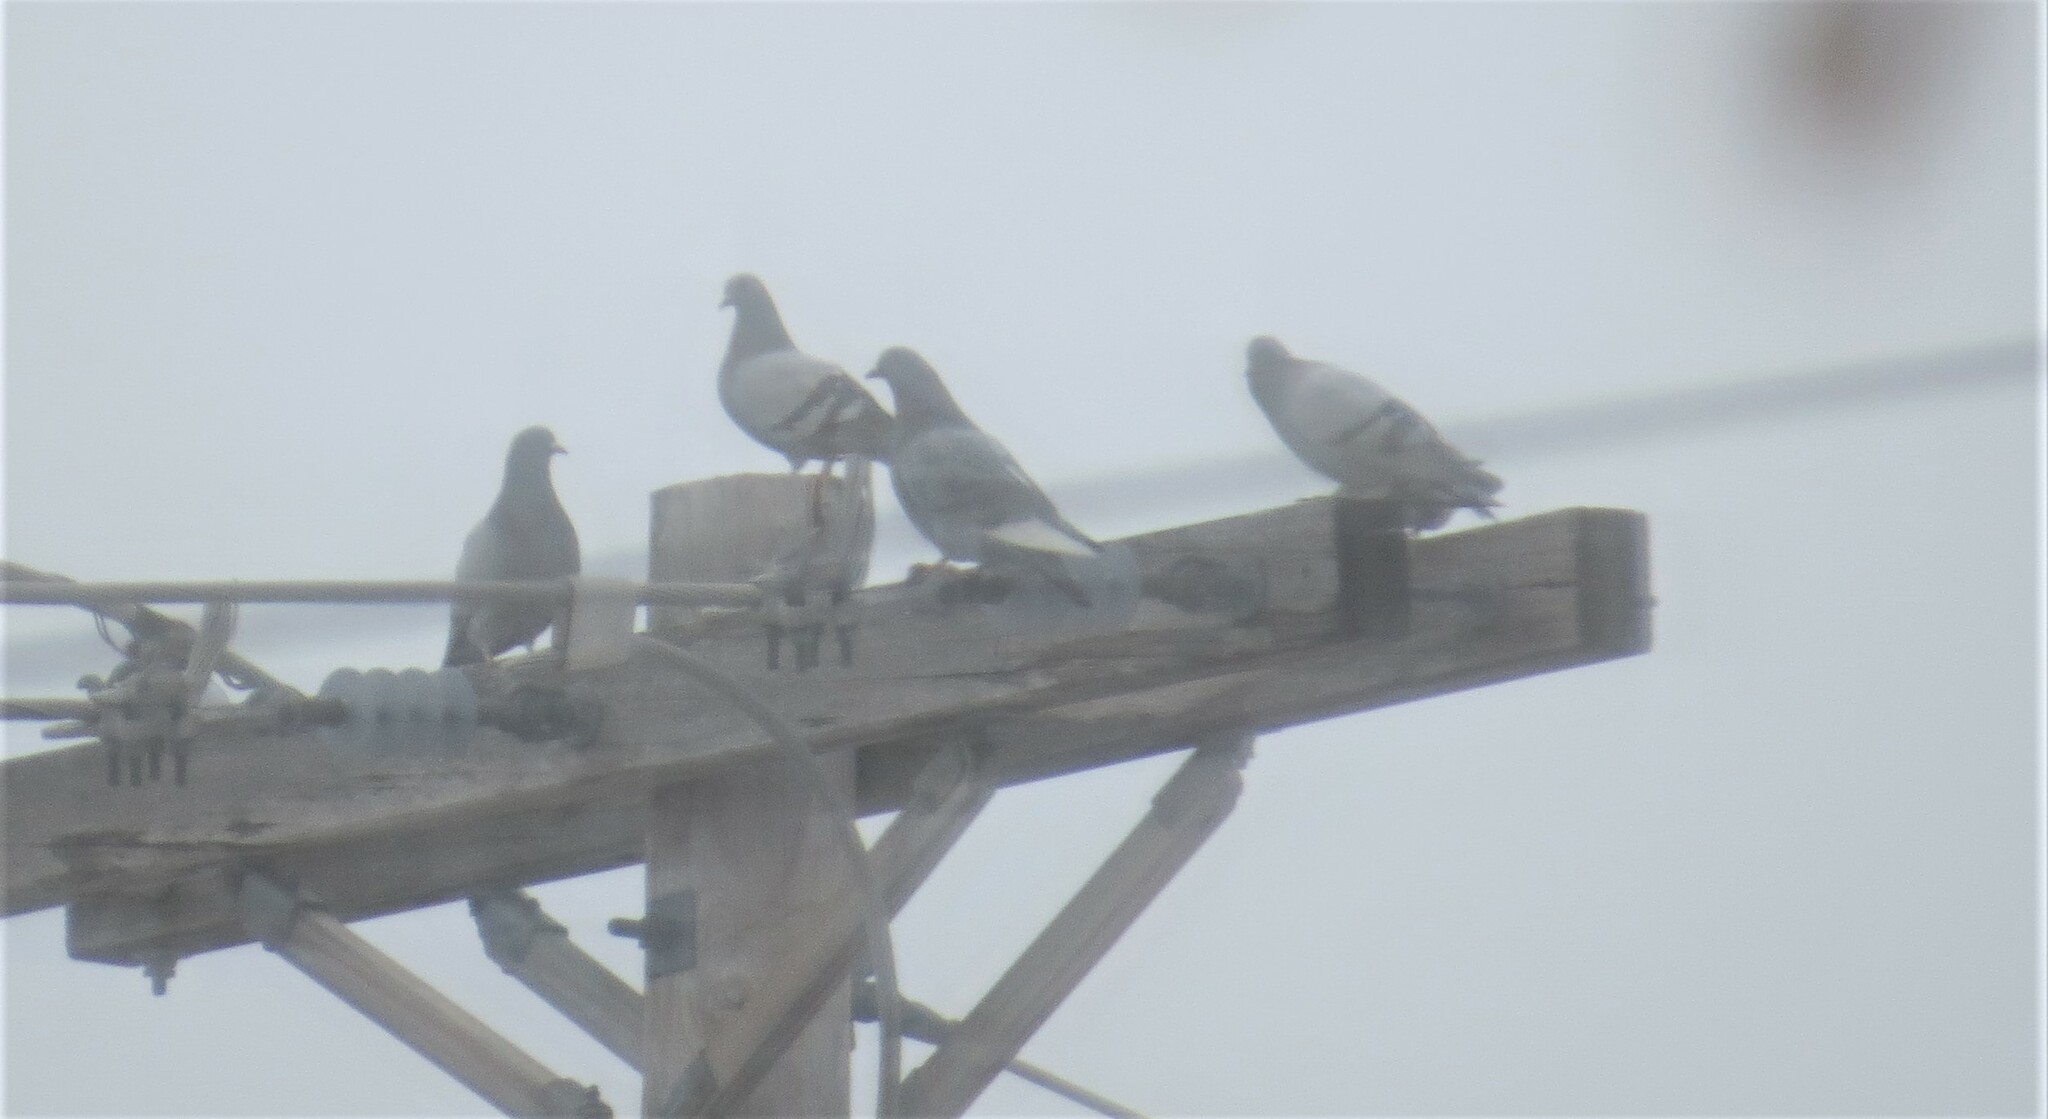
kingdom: Animalia
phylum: Chordata
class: Aves
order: Columbiformes
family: Columbidae
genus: Columba
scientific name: Columba livia
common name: Rock pigeon
